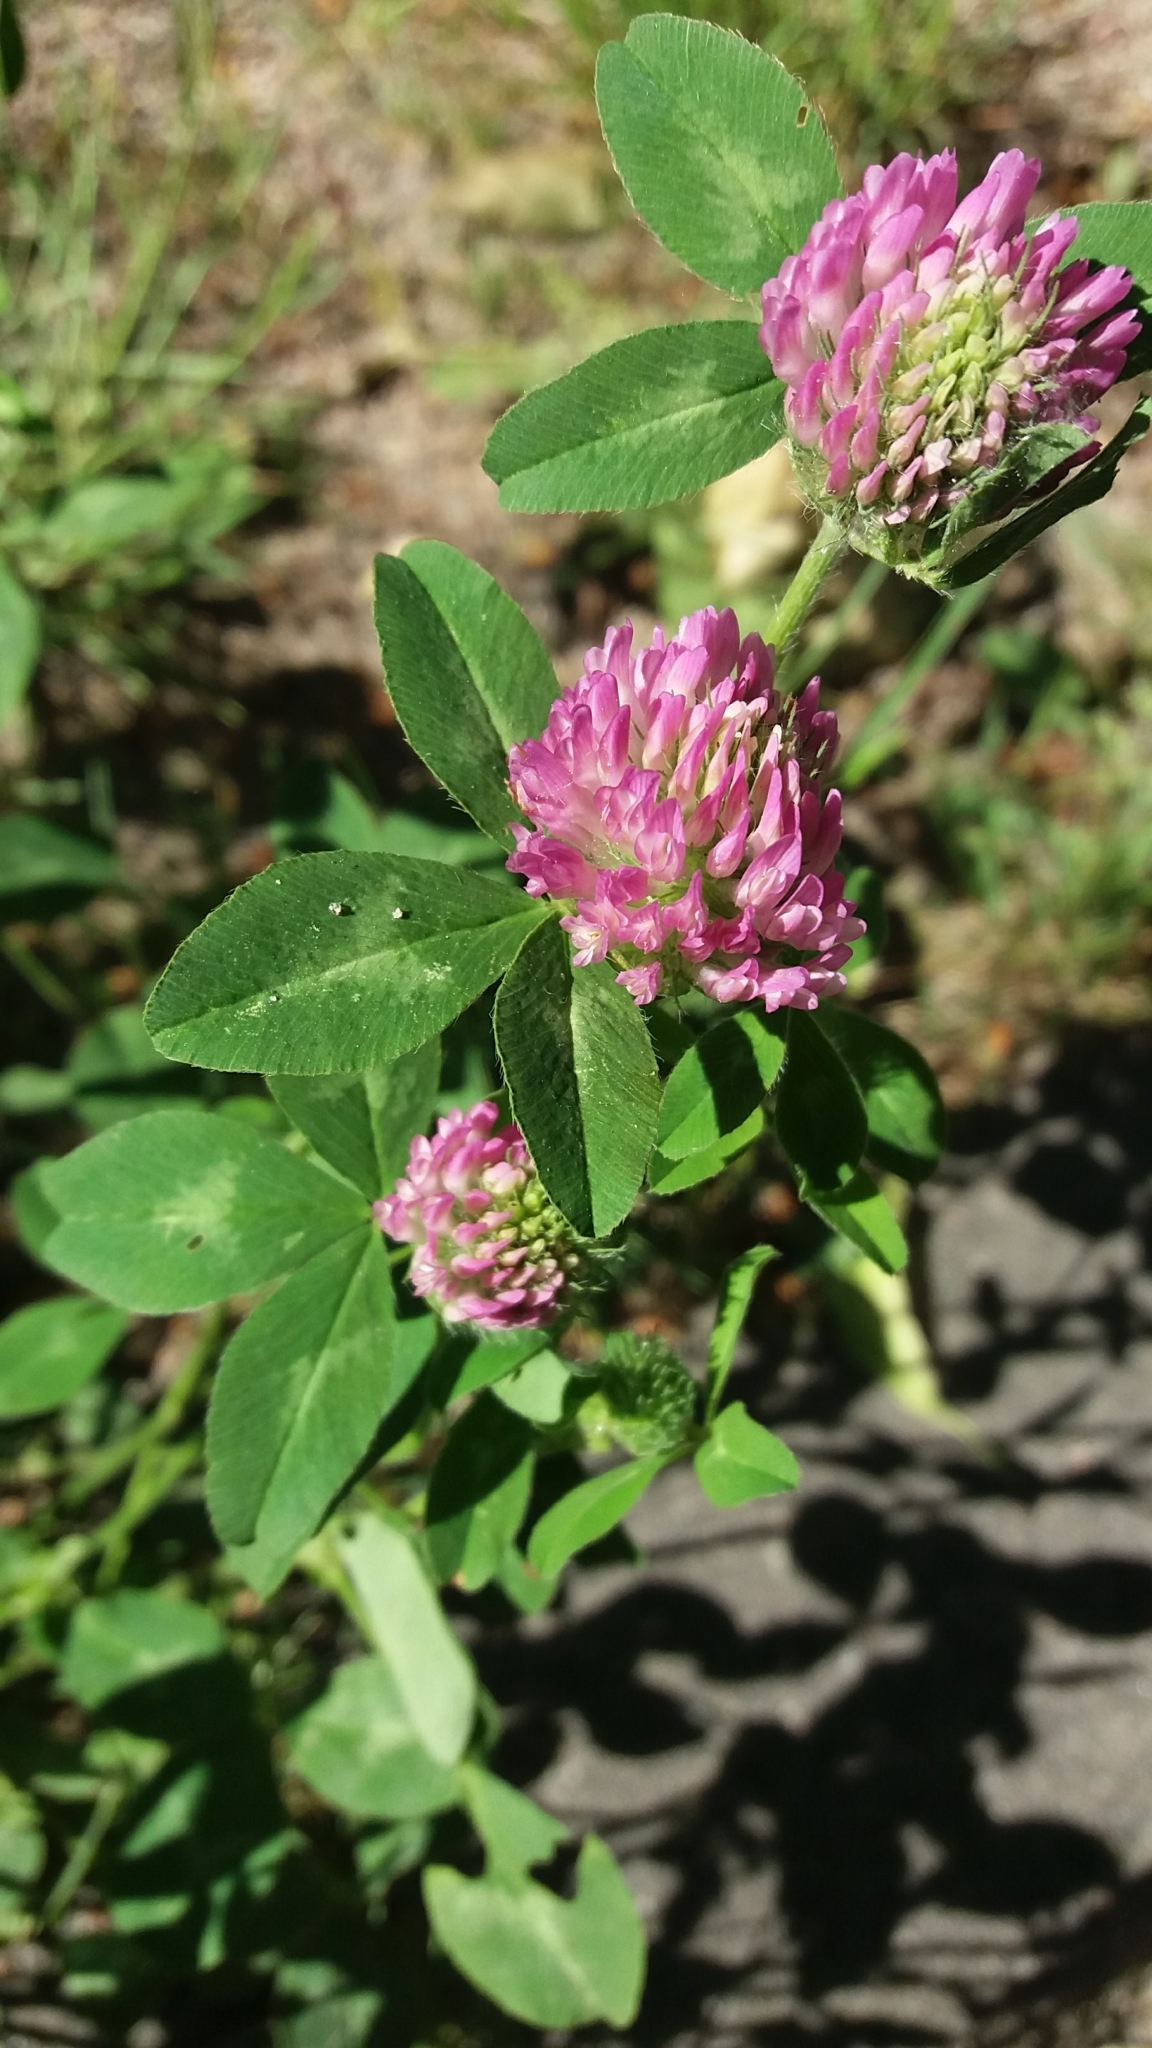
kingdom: Plantae
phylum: Tracheophyta
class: Magnoliopsida
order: Fabales
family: Fabaceae
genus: Trifolium
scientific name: Trifolium pratense
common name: Red clover
